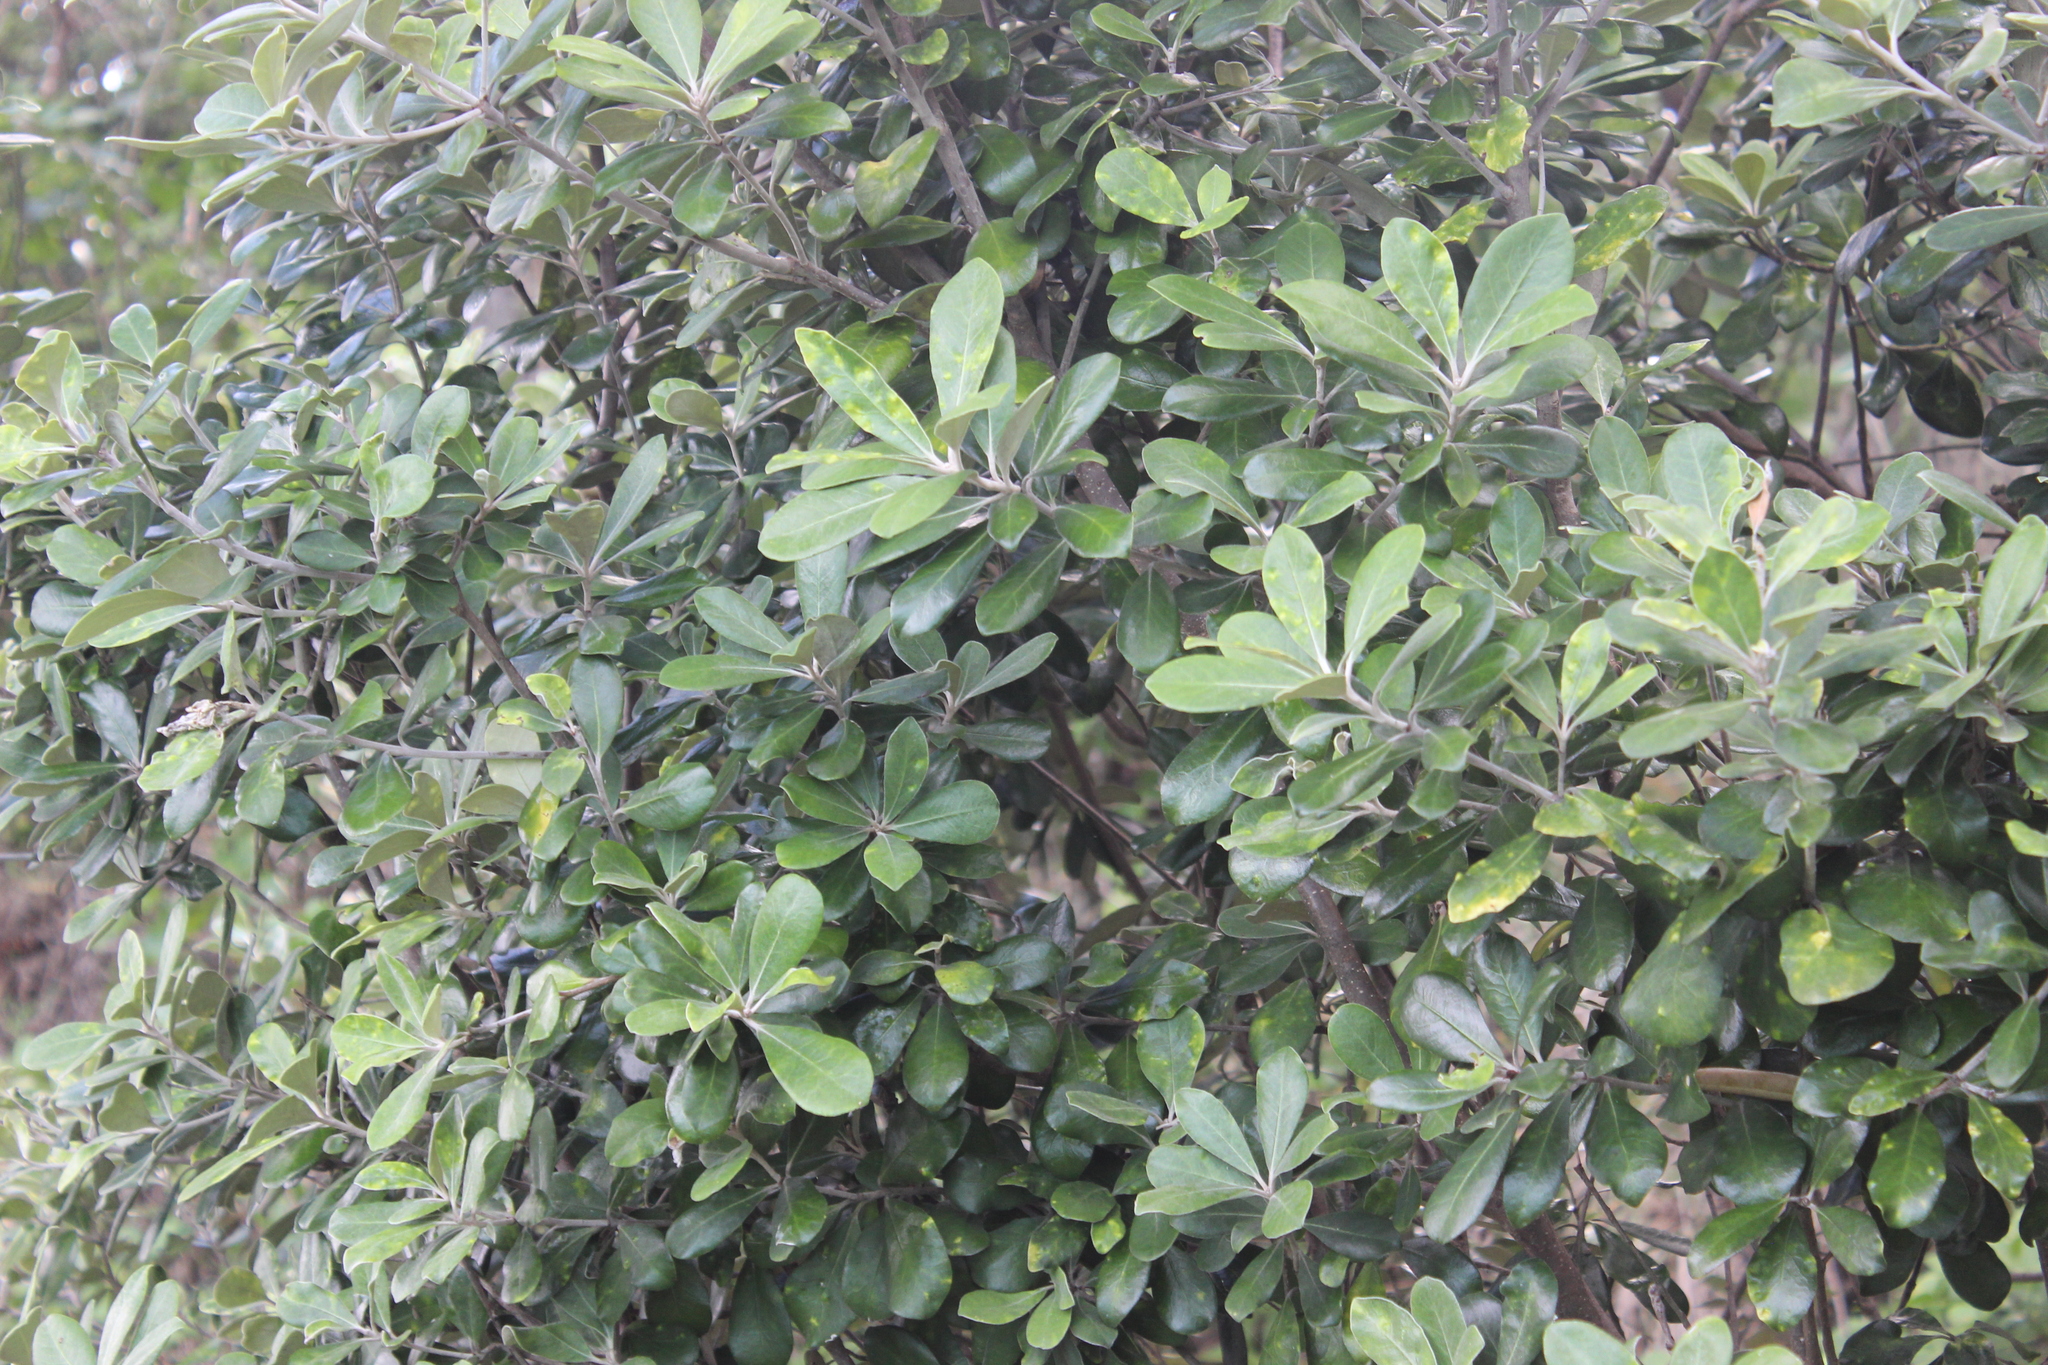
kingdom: Plantae
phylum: Tracheophyta
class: Magnoliopsida
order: Apiales
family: Pittosporaceae
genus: Pittosporum
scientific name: Pittosporum crassifolium
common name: Karo
